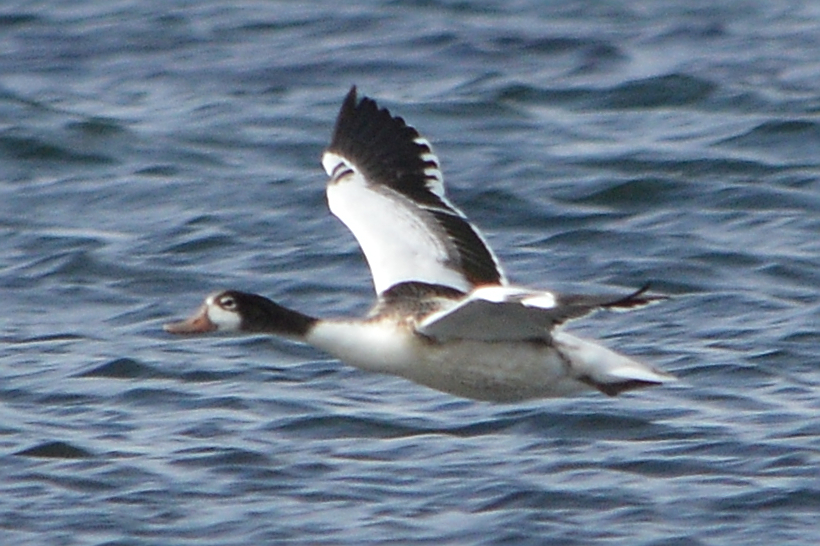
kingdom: Animalia
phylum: Chordata
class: Aves
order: Anseriformes
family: Anatidae
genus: Tadorna
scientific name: Tadorna tadorna
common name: Common shelduck
